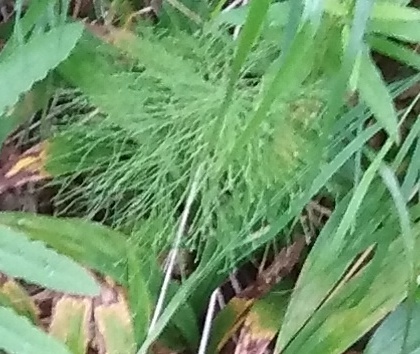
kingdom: Plantae
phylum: Tracheophyta
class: Polypodiopsida
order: Equisetales
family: Equisetaceae
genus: Equisetum
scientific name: Equisetum sylvaticum
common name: Wood horsetail
